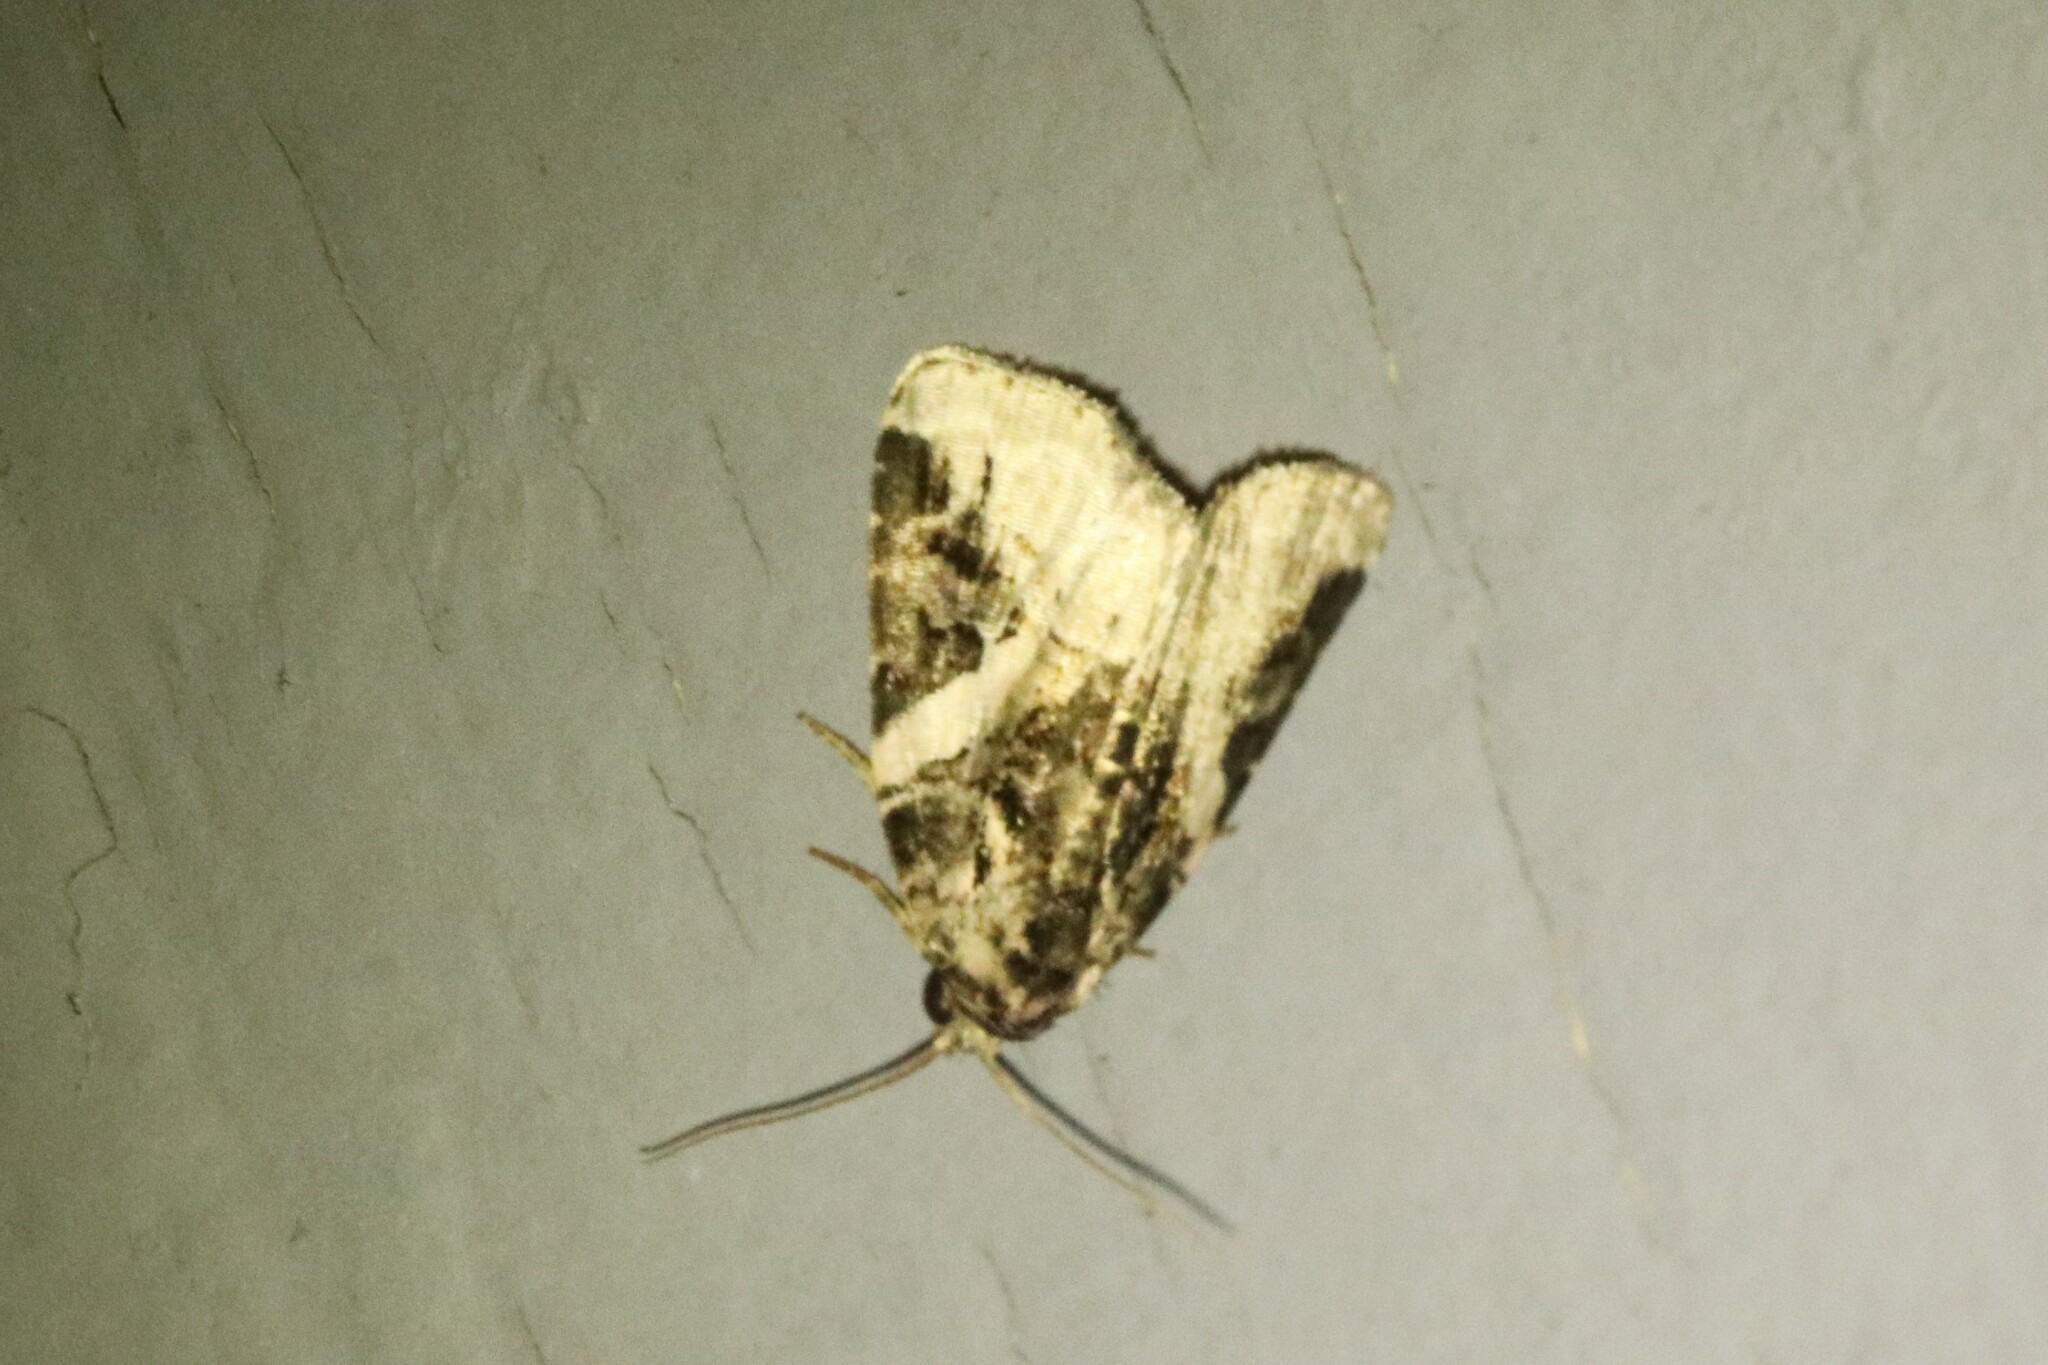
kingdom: Animalia
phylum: Arthropoda
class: Insecta
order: Lepidoptera
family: Noctuidae
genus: Pseudeustrotia
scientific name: Pseudeustrotia carneola
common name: Pink-barred lithacodia moth
